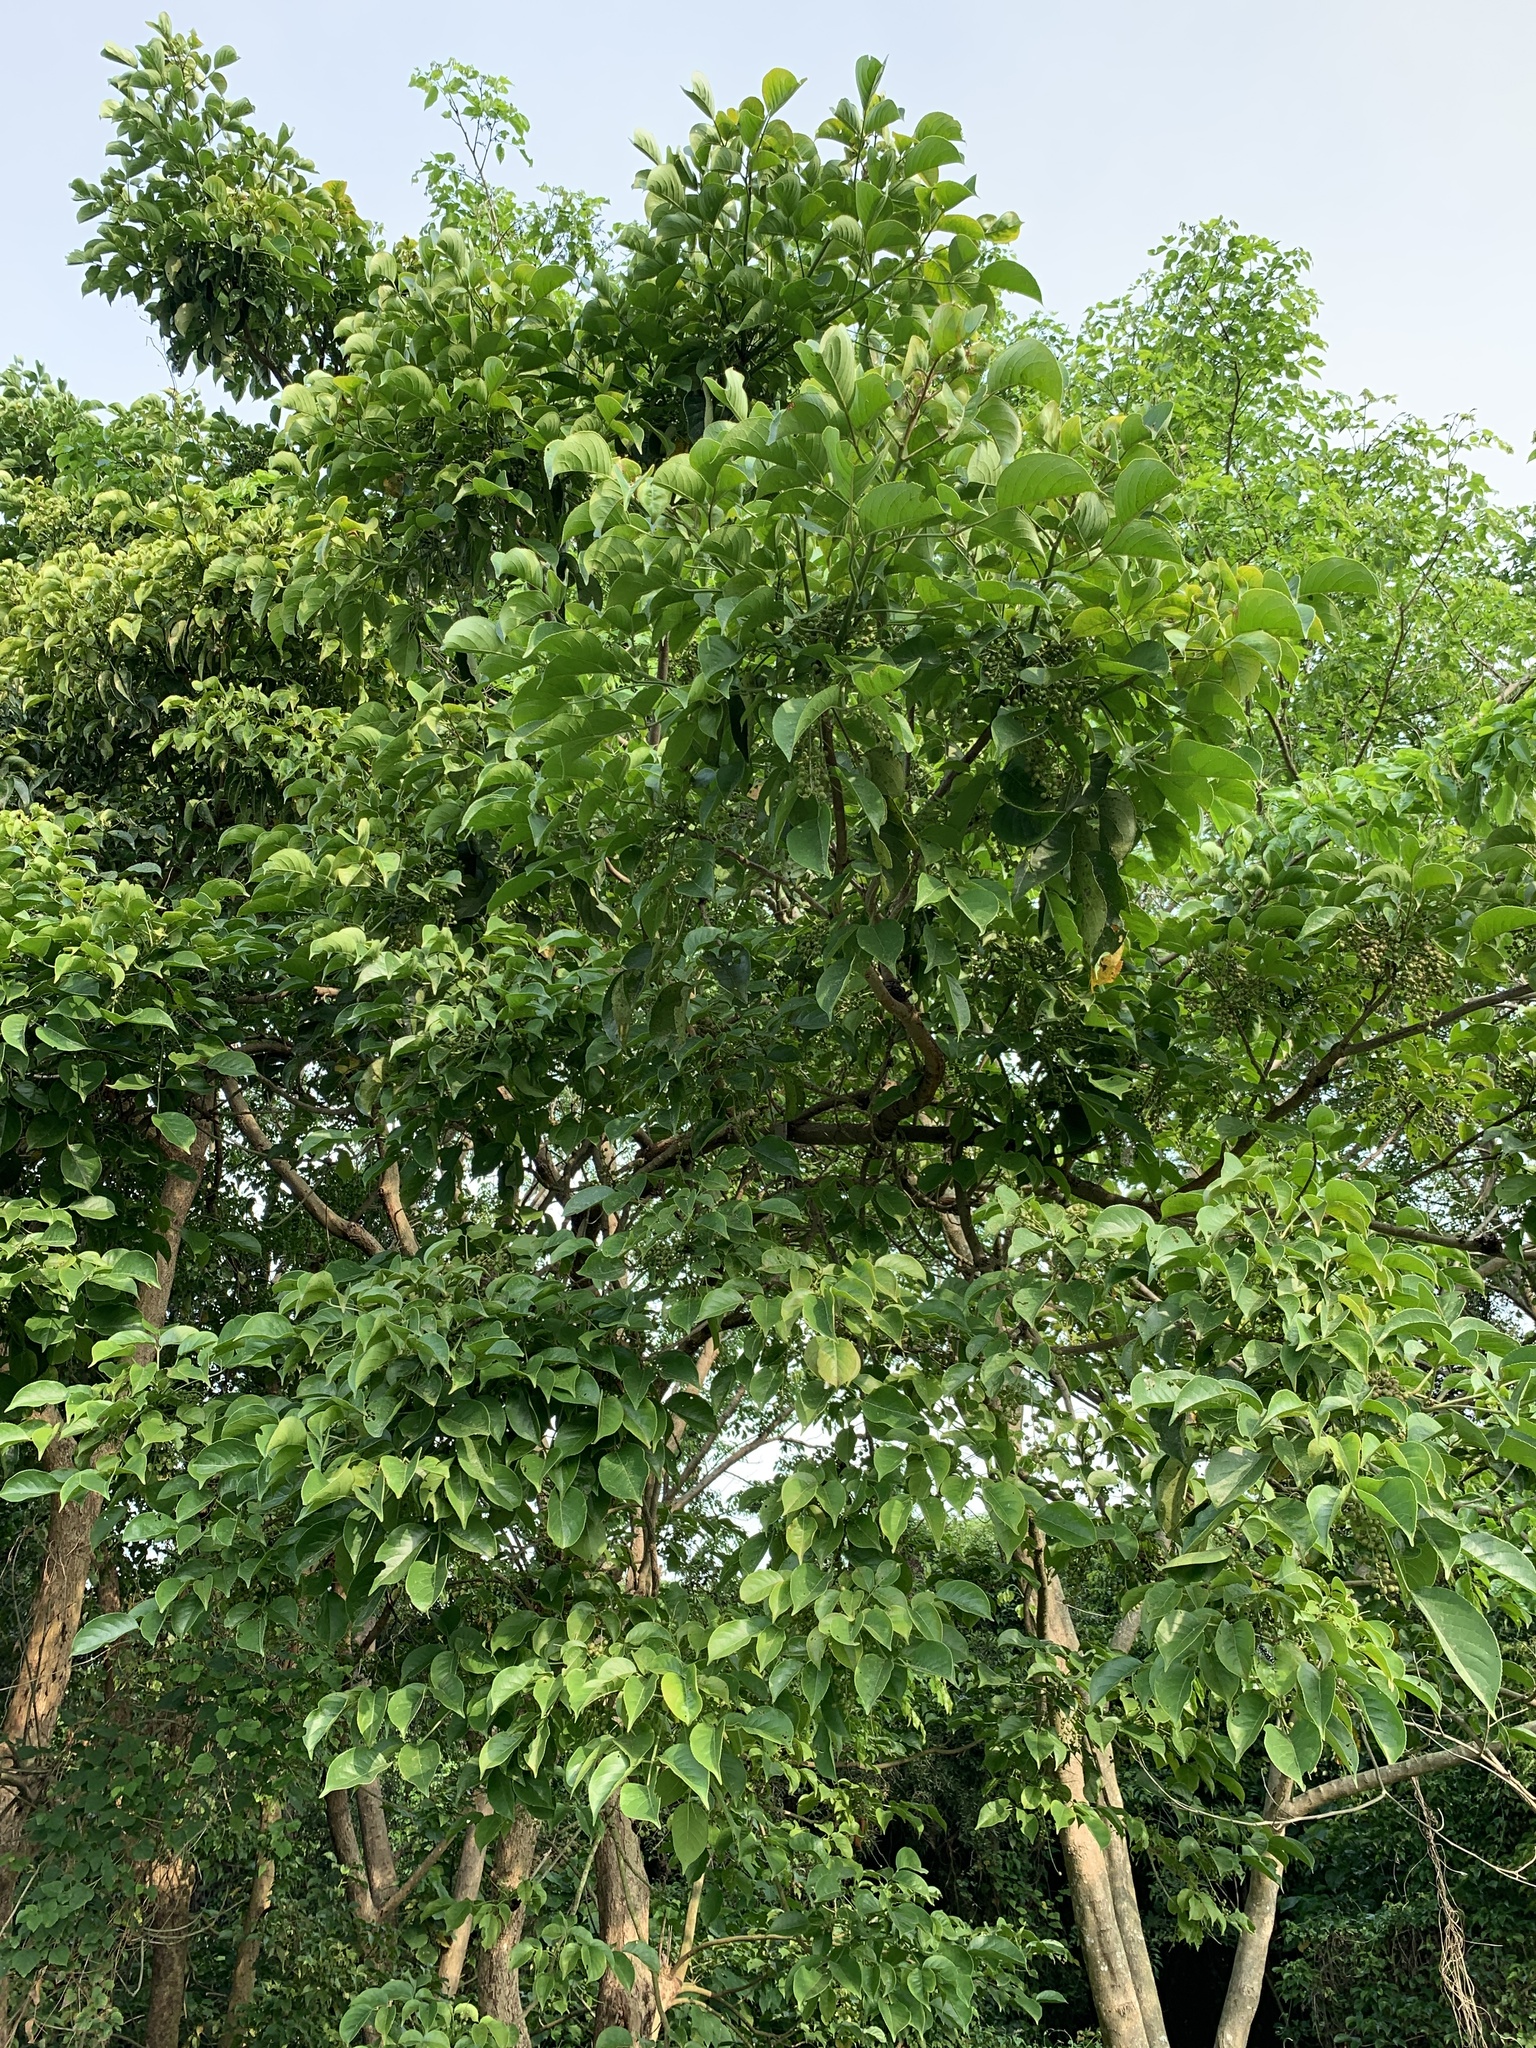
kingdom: Plantae
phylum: Tracheophyta
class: Magnoliopsida
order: Malpighiales
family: Phyllanthaceae
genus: Bischofia
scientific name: Bischofia javanica
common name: Javanese bishopwood
